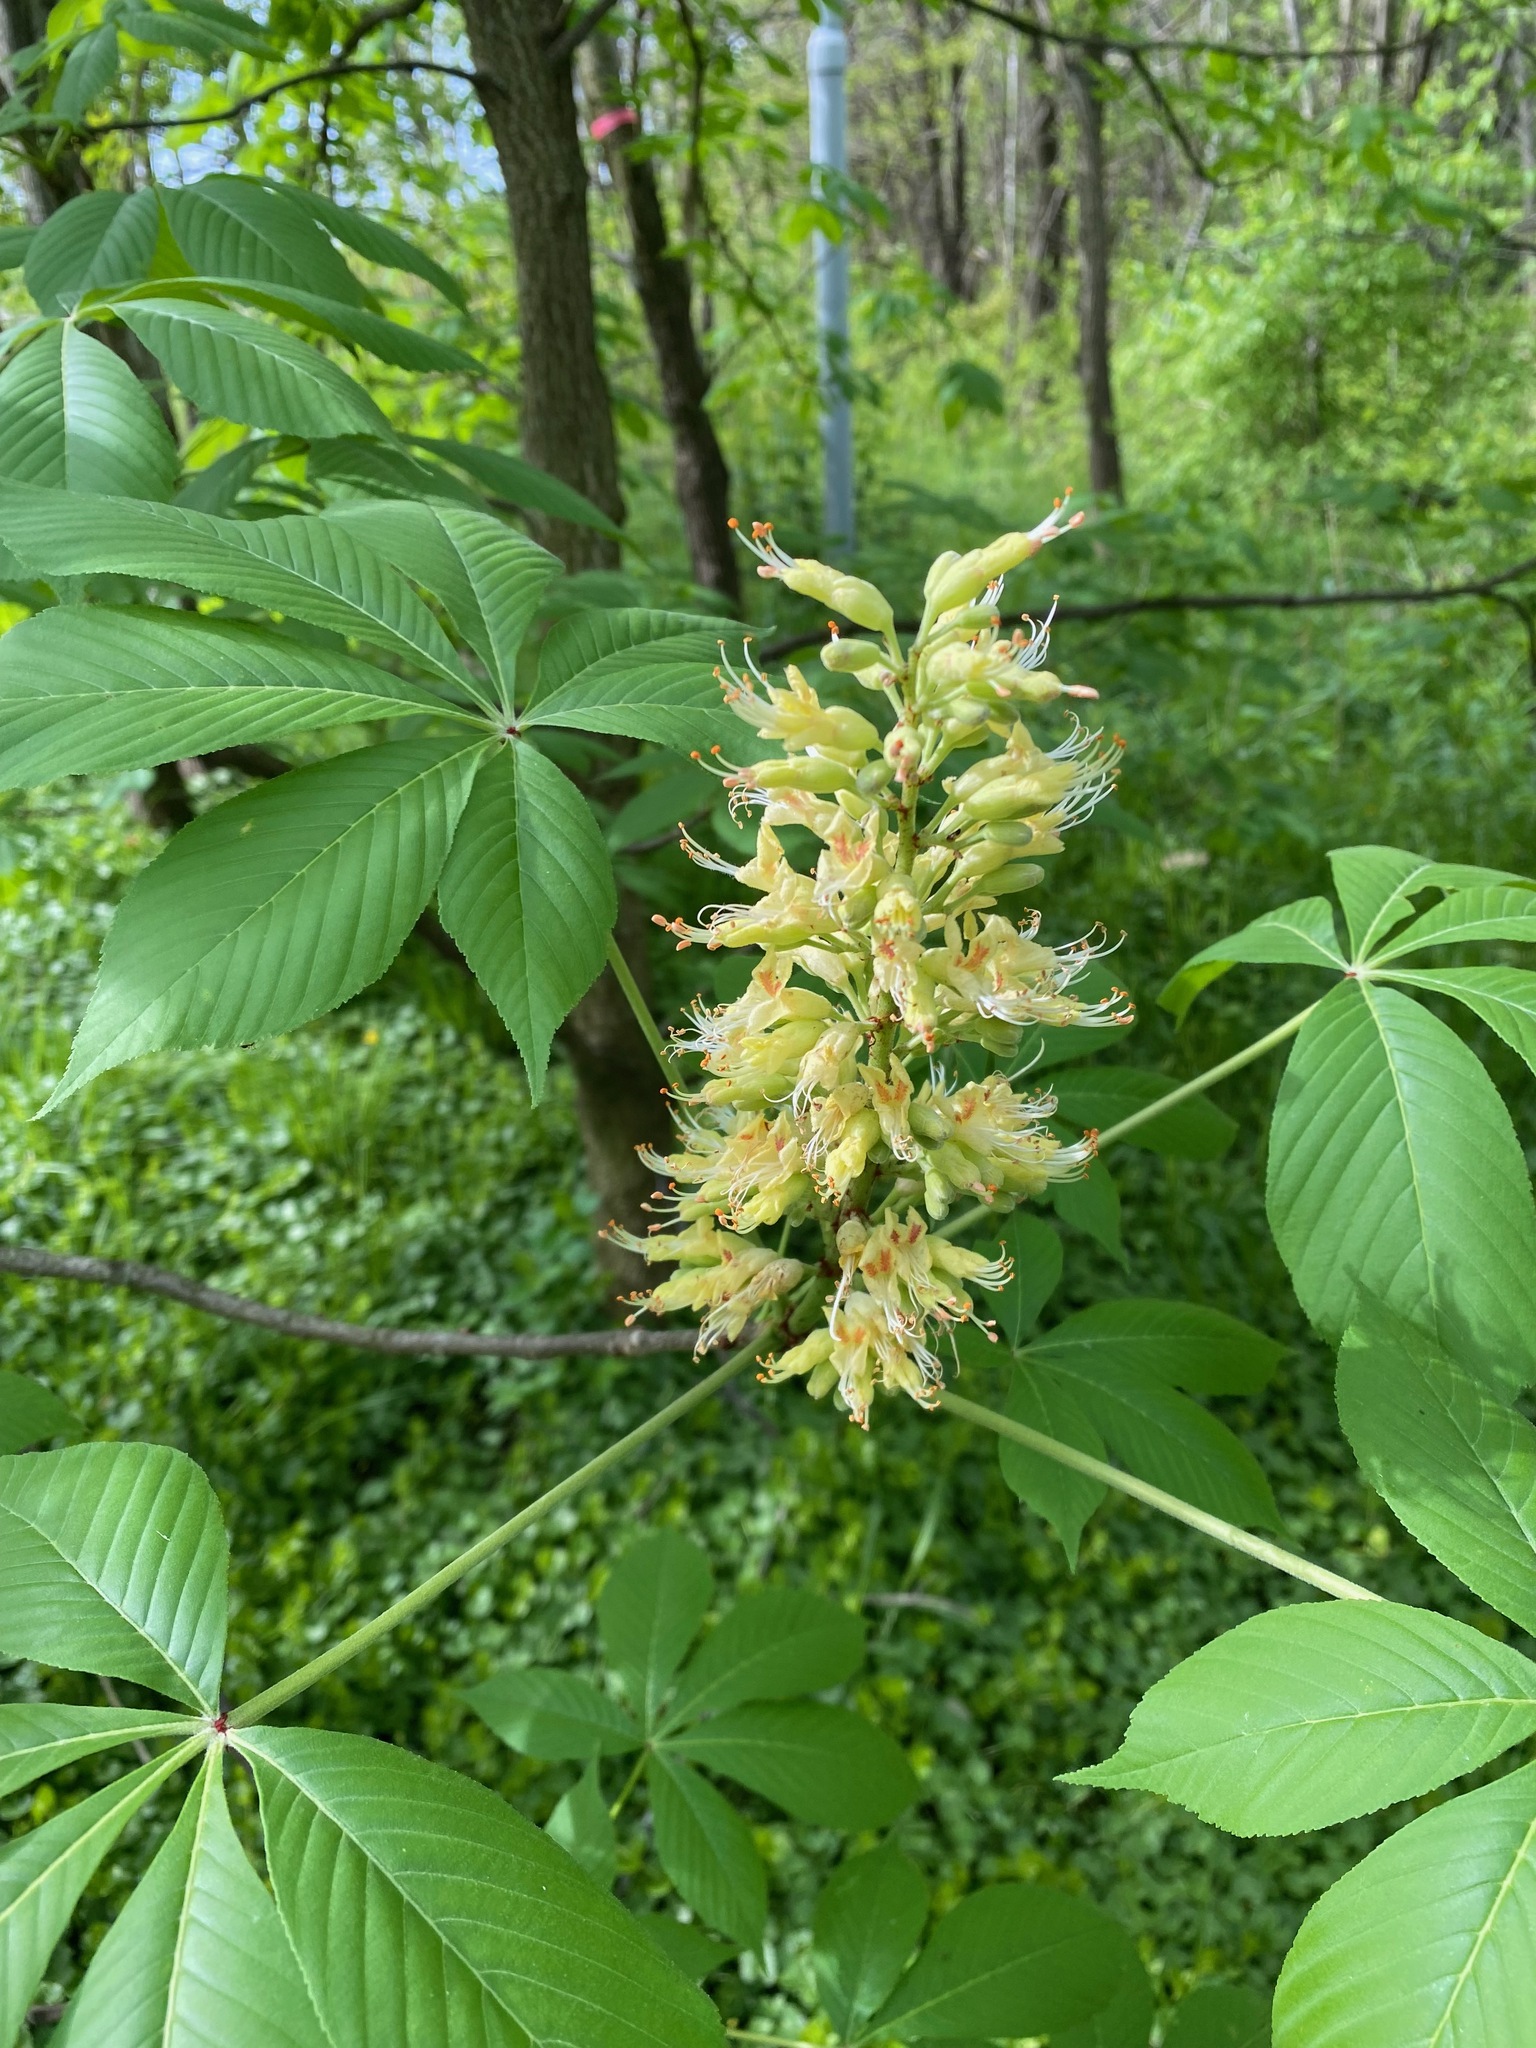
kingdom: Plantae
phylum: Tracheophyta
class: Magnoliopsida
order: Sapindales
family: Sapindaceae
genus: Aesculus
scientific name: Aesculus glabra
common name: Ohio buckeye
